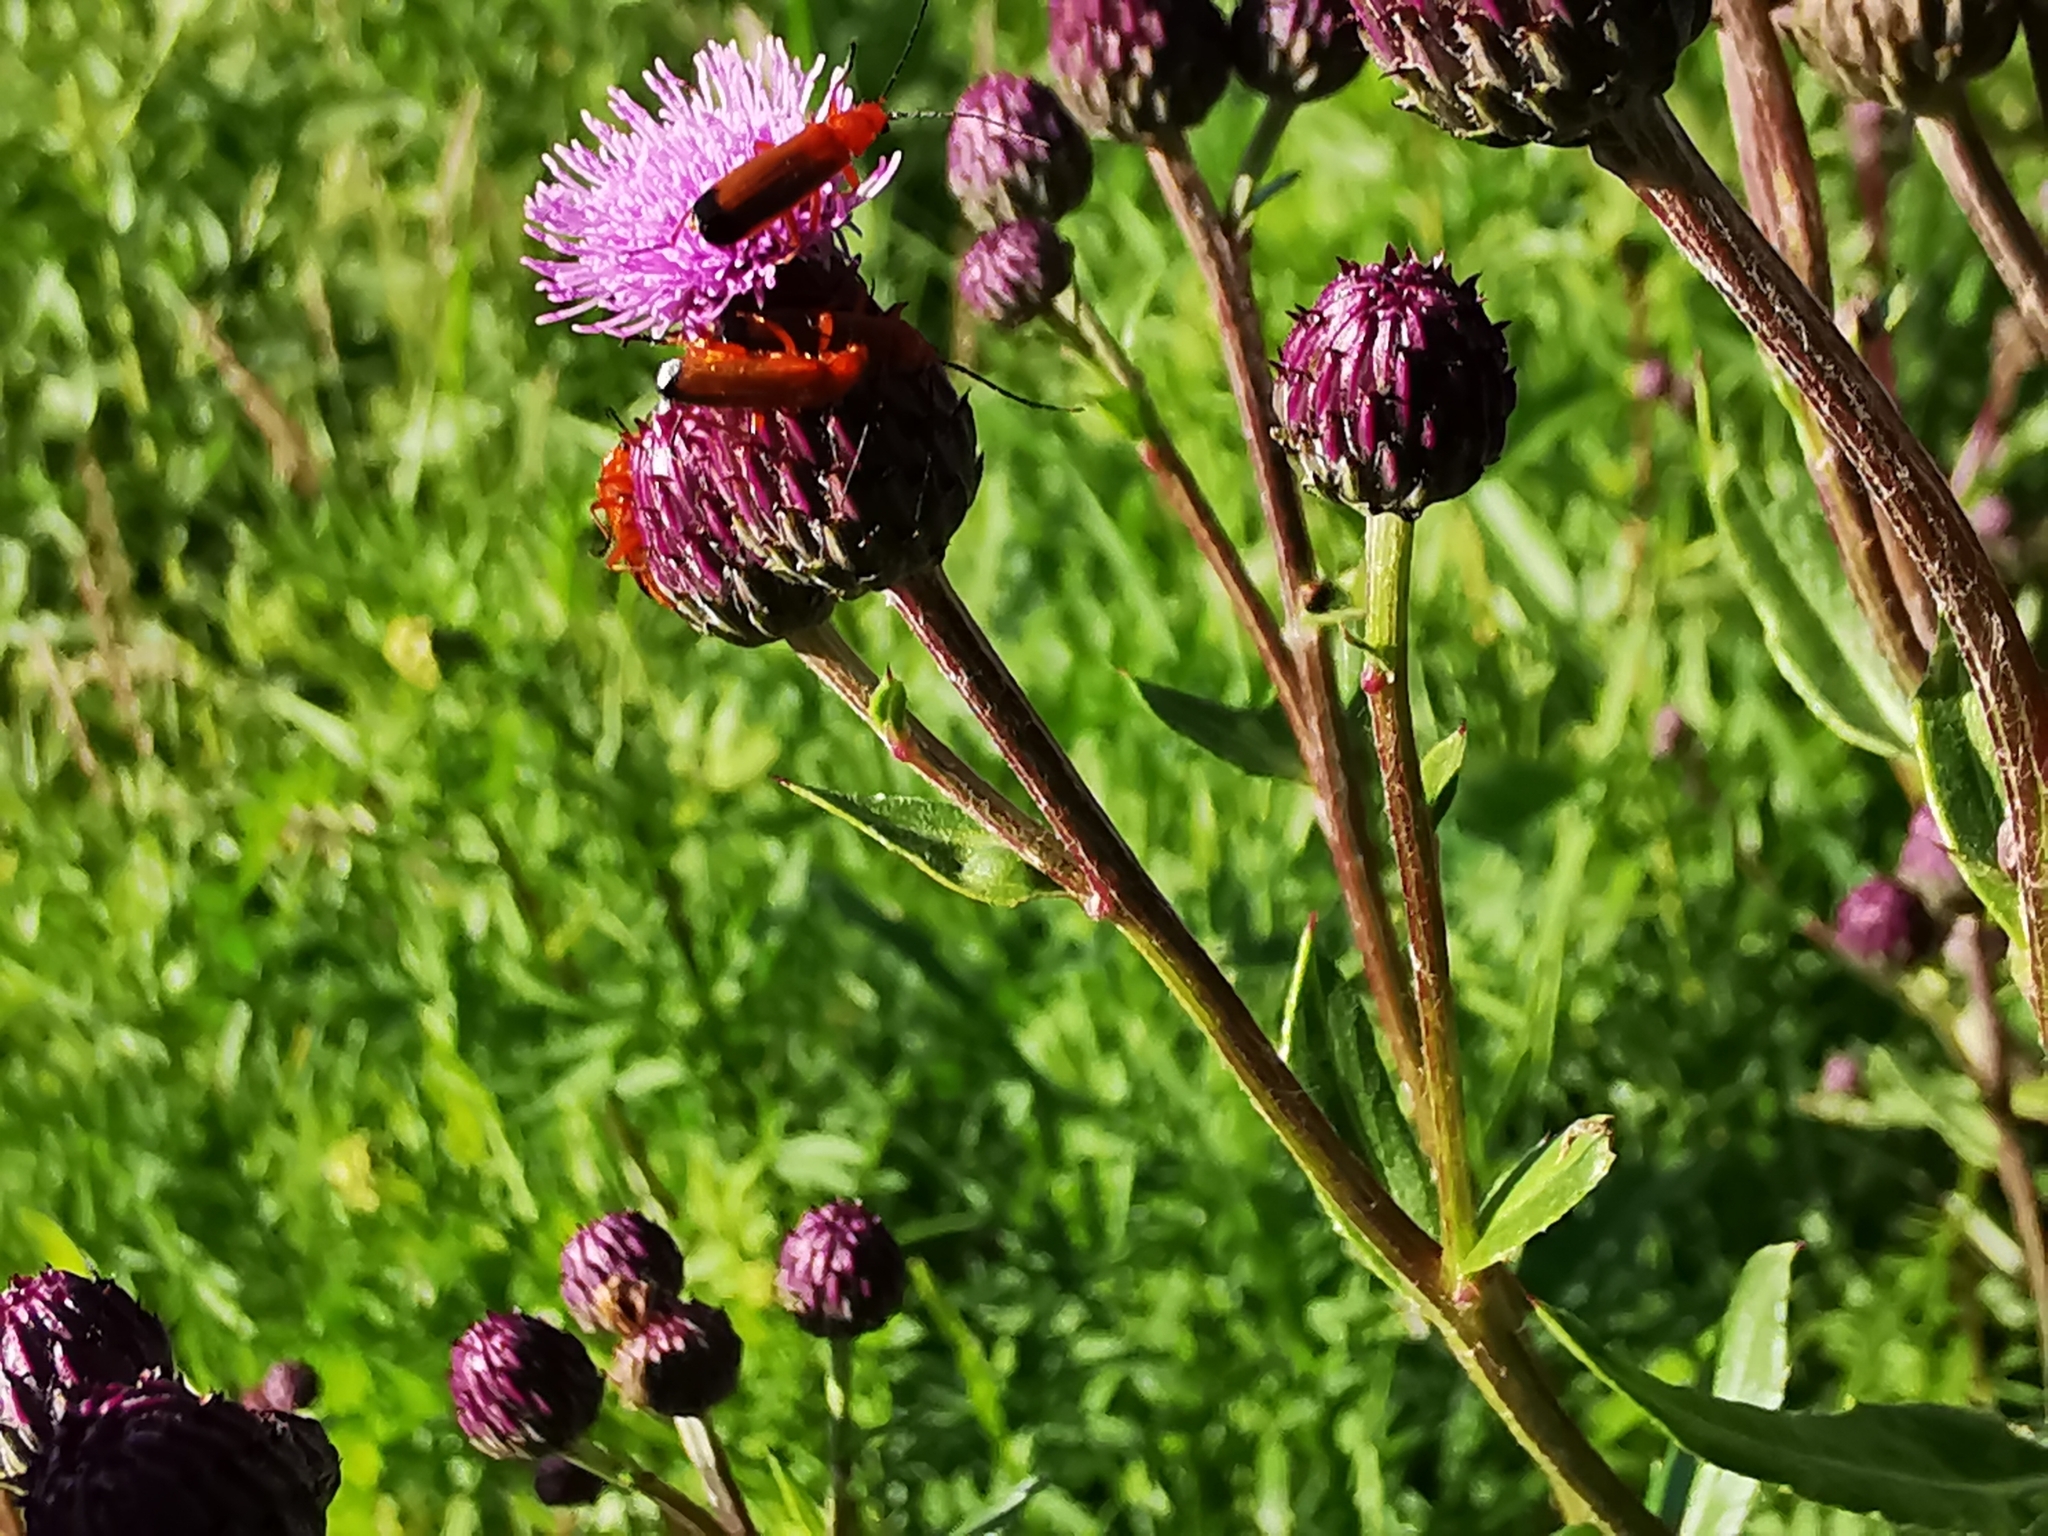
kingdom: Plantae
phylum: Tracheophyta
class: Magnoliopsida
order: Asterales
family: Asteraceae
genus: Cirsium
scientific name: Cirsium arvense
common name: Creeping thistle
